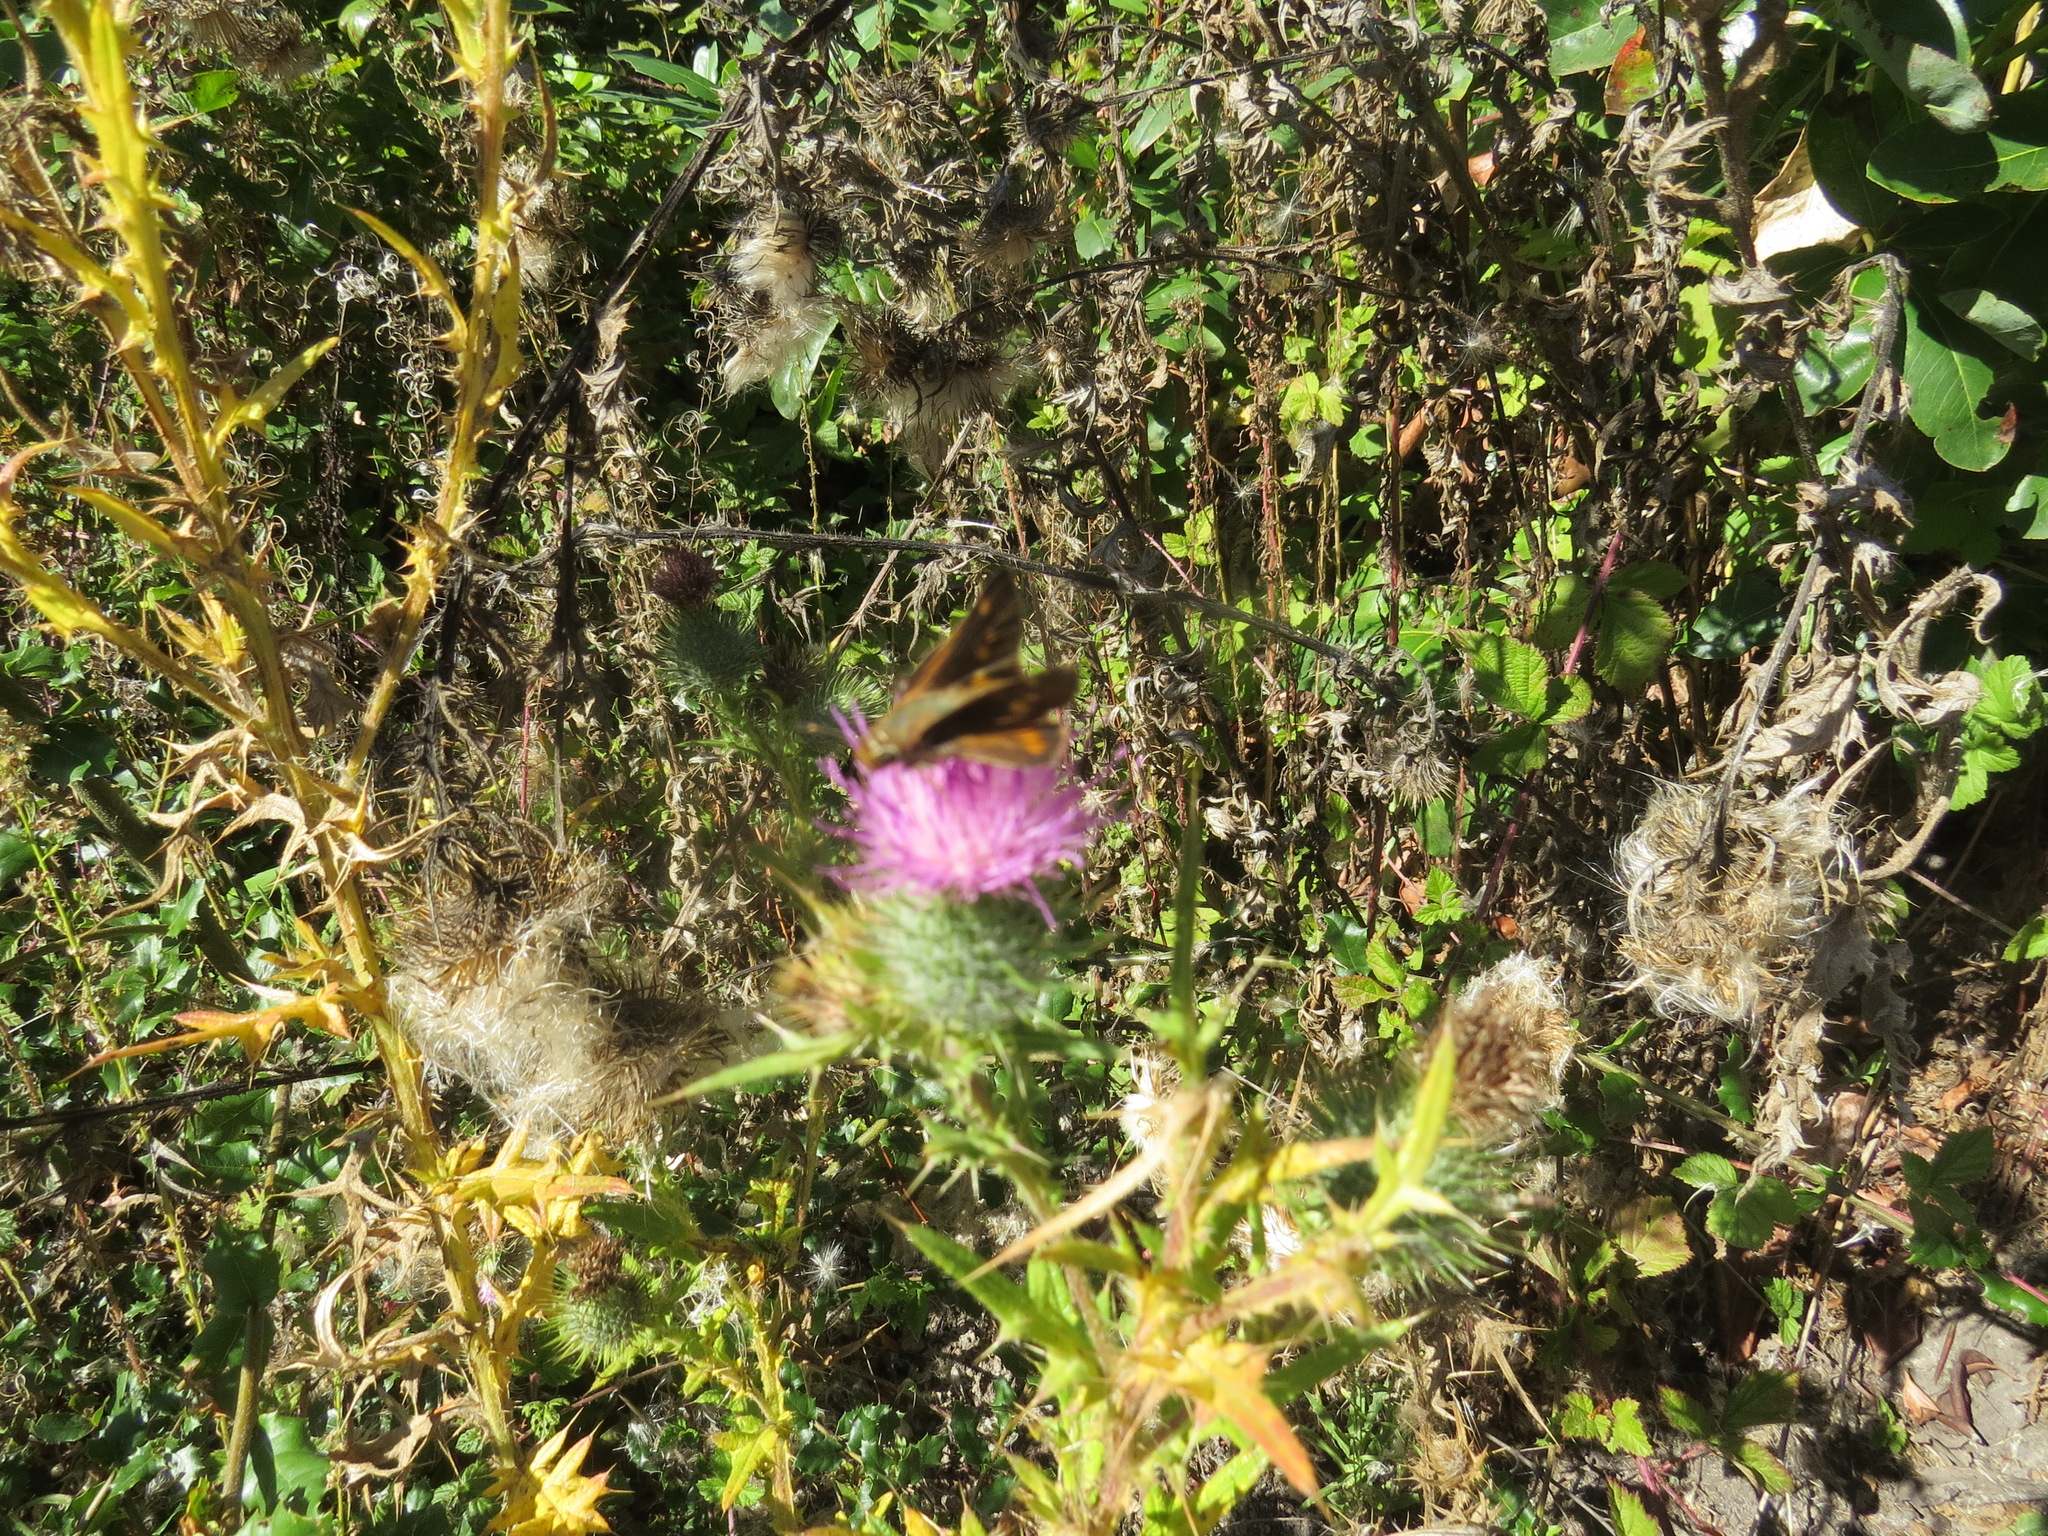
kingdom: Animalia
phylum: Arthropoda
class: Insecta
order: Lepidoptera
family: Hesperiidae
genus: Lon
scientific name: Lon melane
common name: Umber skipper
